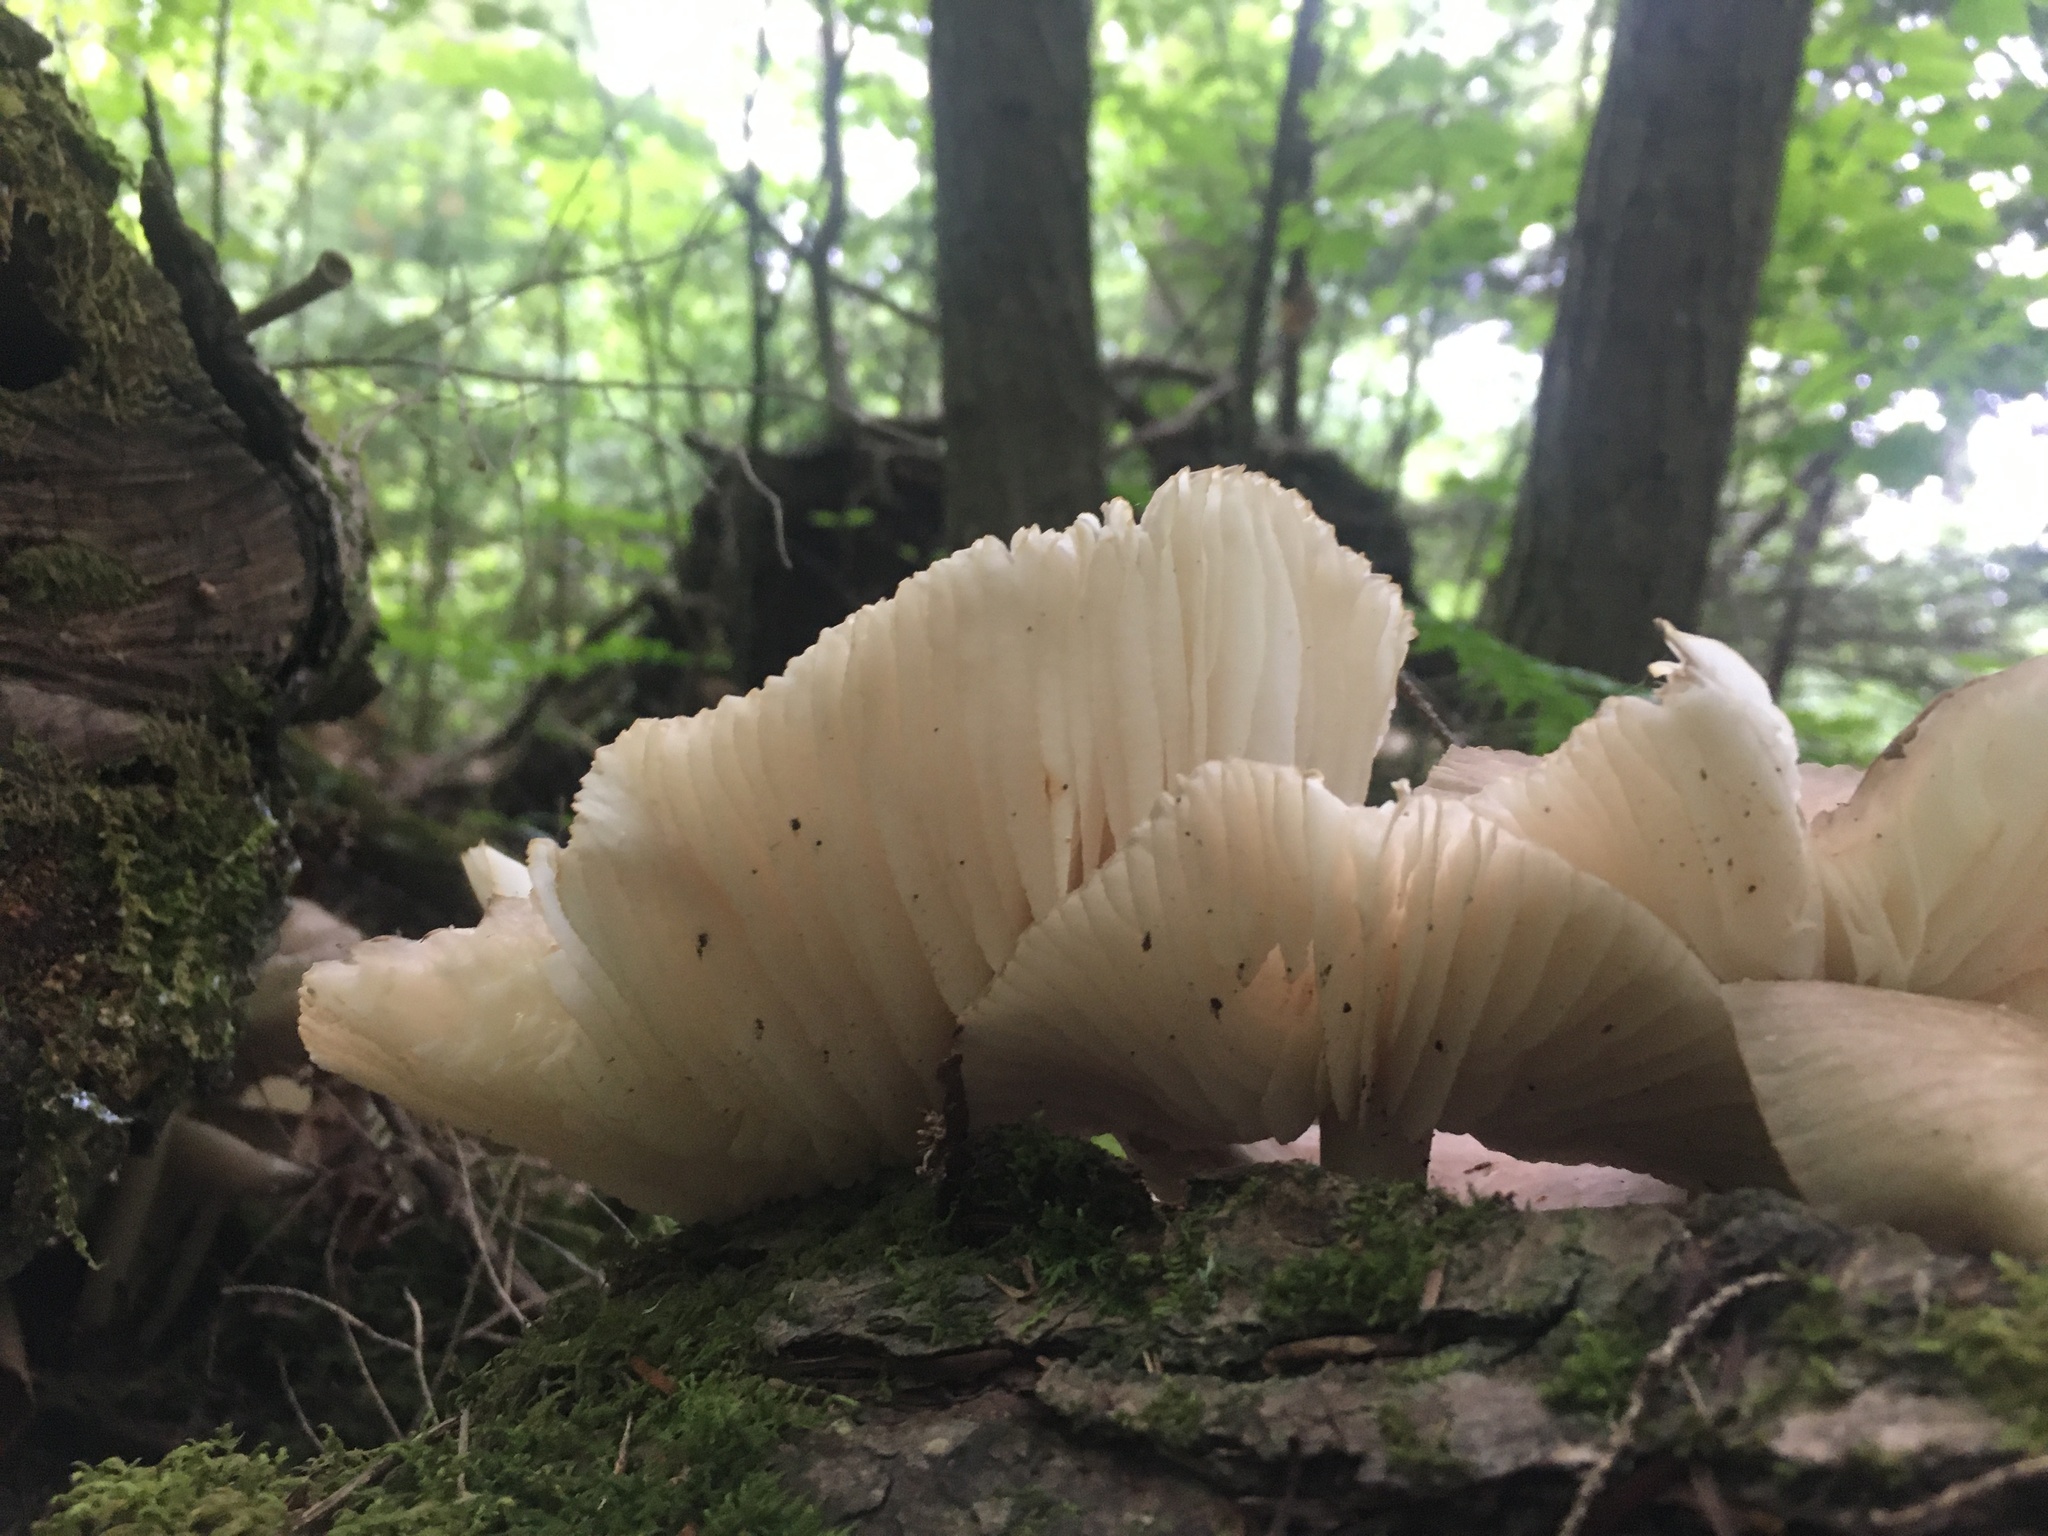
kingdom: Fungi
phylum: Basidiomycota
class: Agaricomycetes
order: Agaricales
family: Tricholomataceae
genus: Megacollybia
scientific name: Megacollybia rodmanii
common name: Eastern american platterful mushroom
